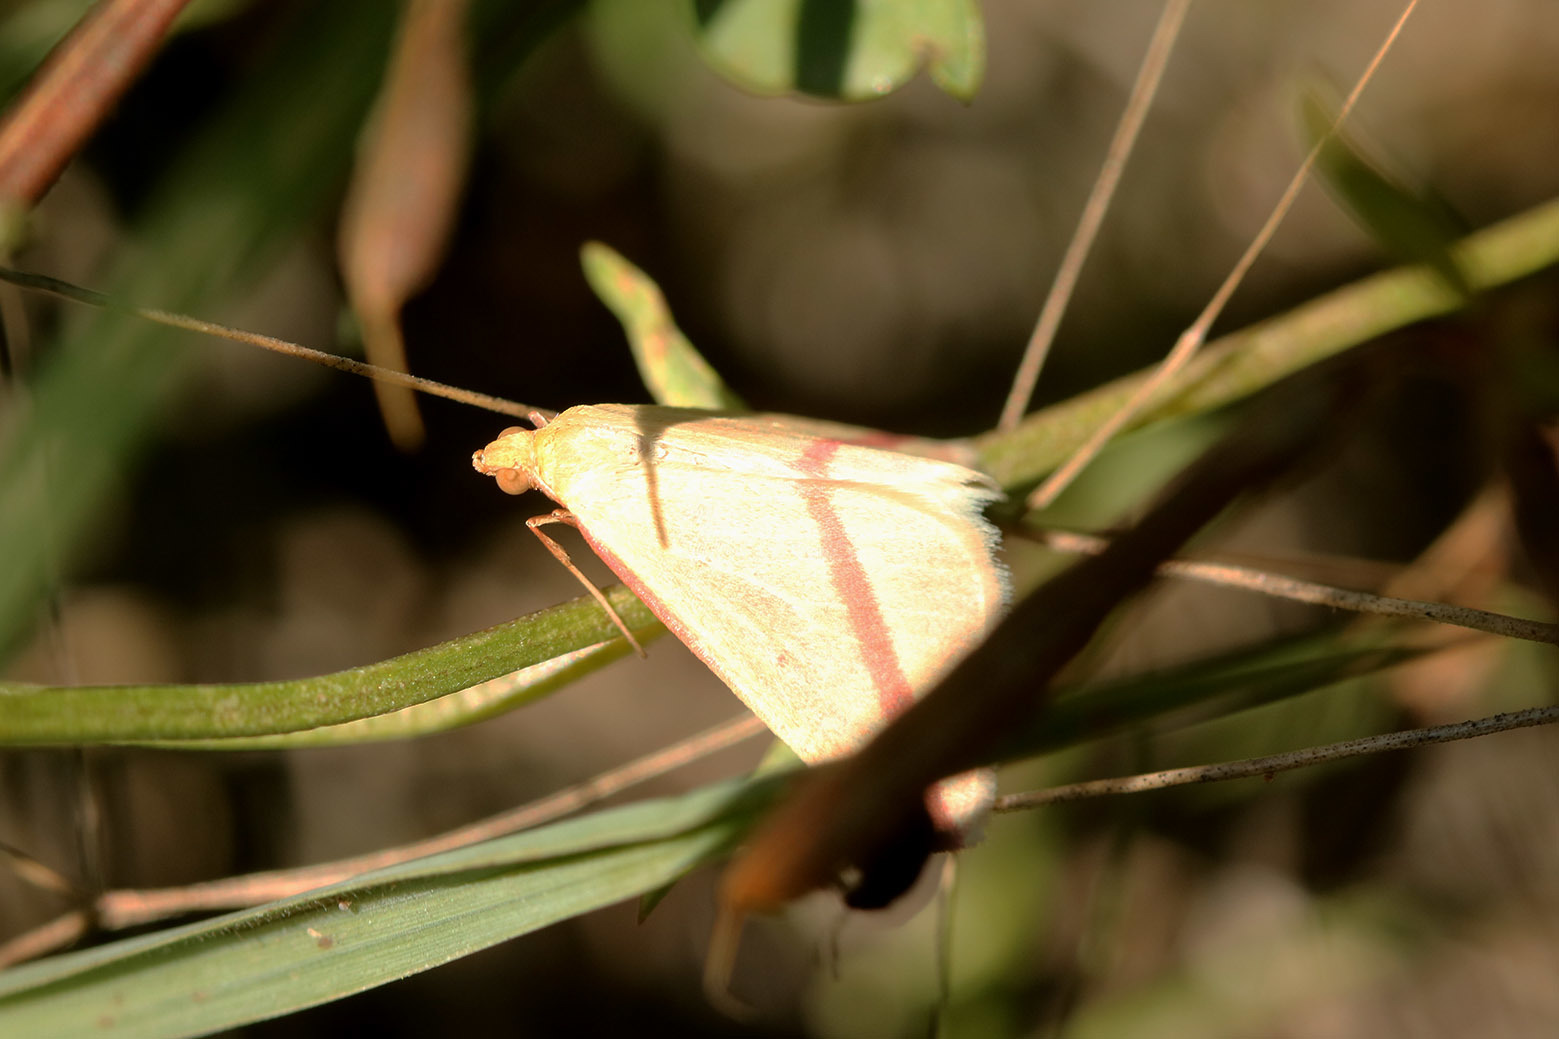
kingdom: Animalia
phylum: Arthropoda
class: Insecta
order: Lepidoptera
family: Geometridae
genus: Rhodometra
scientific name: Rhodometra sacraria
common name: Vestal
